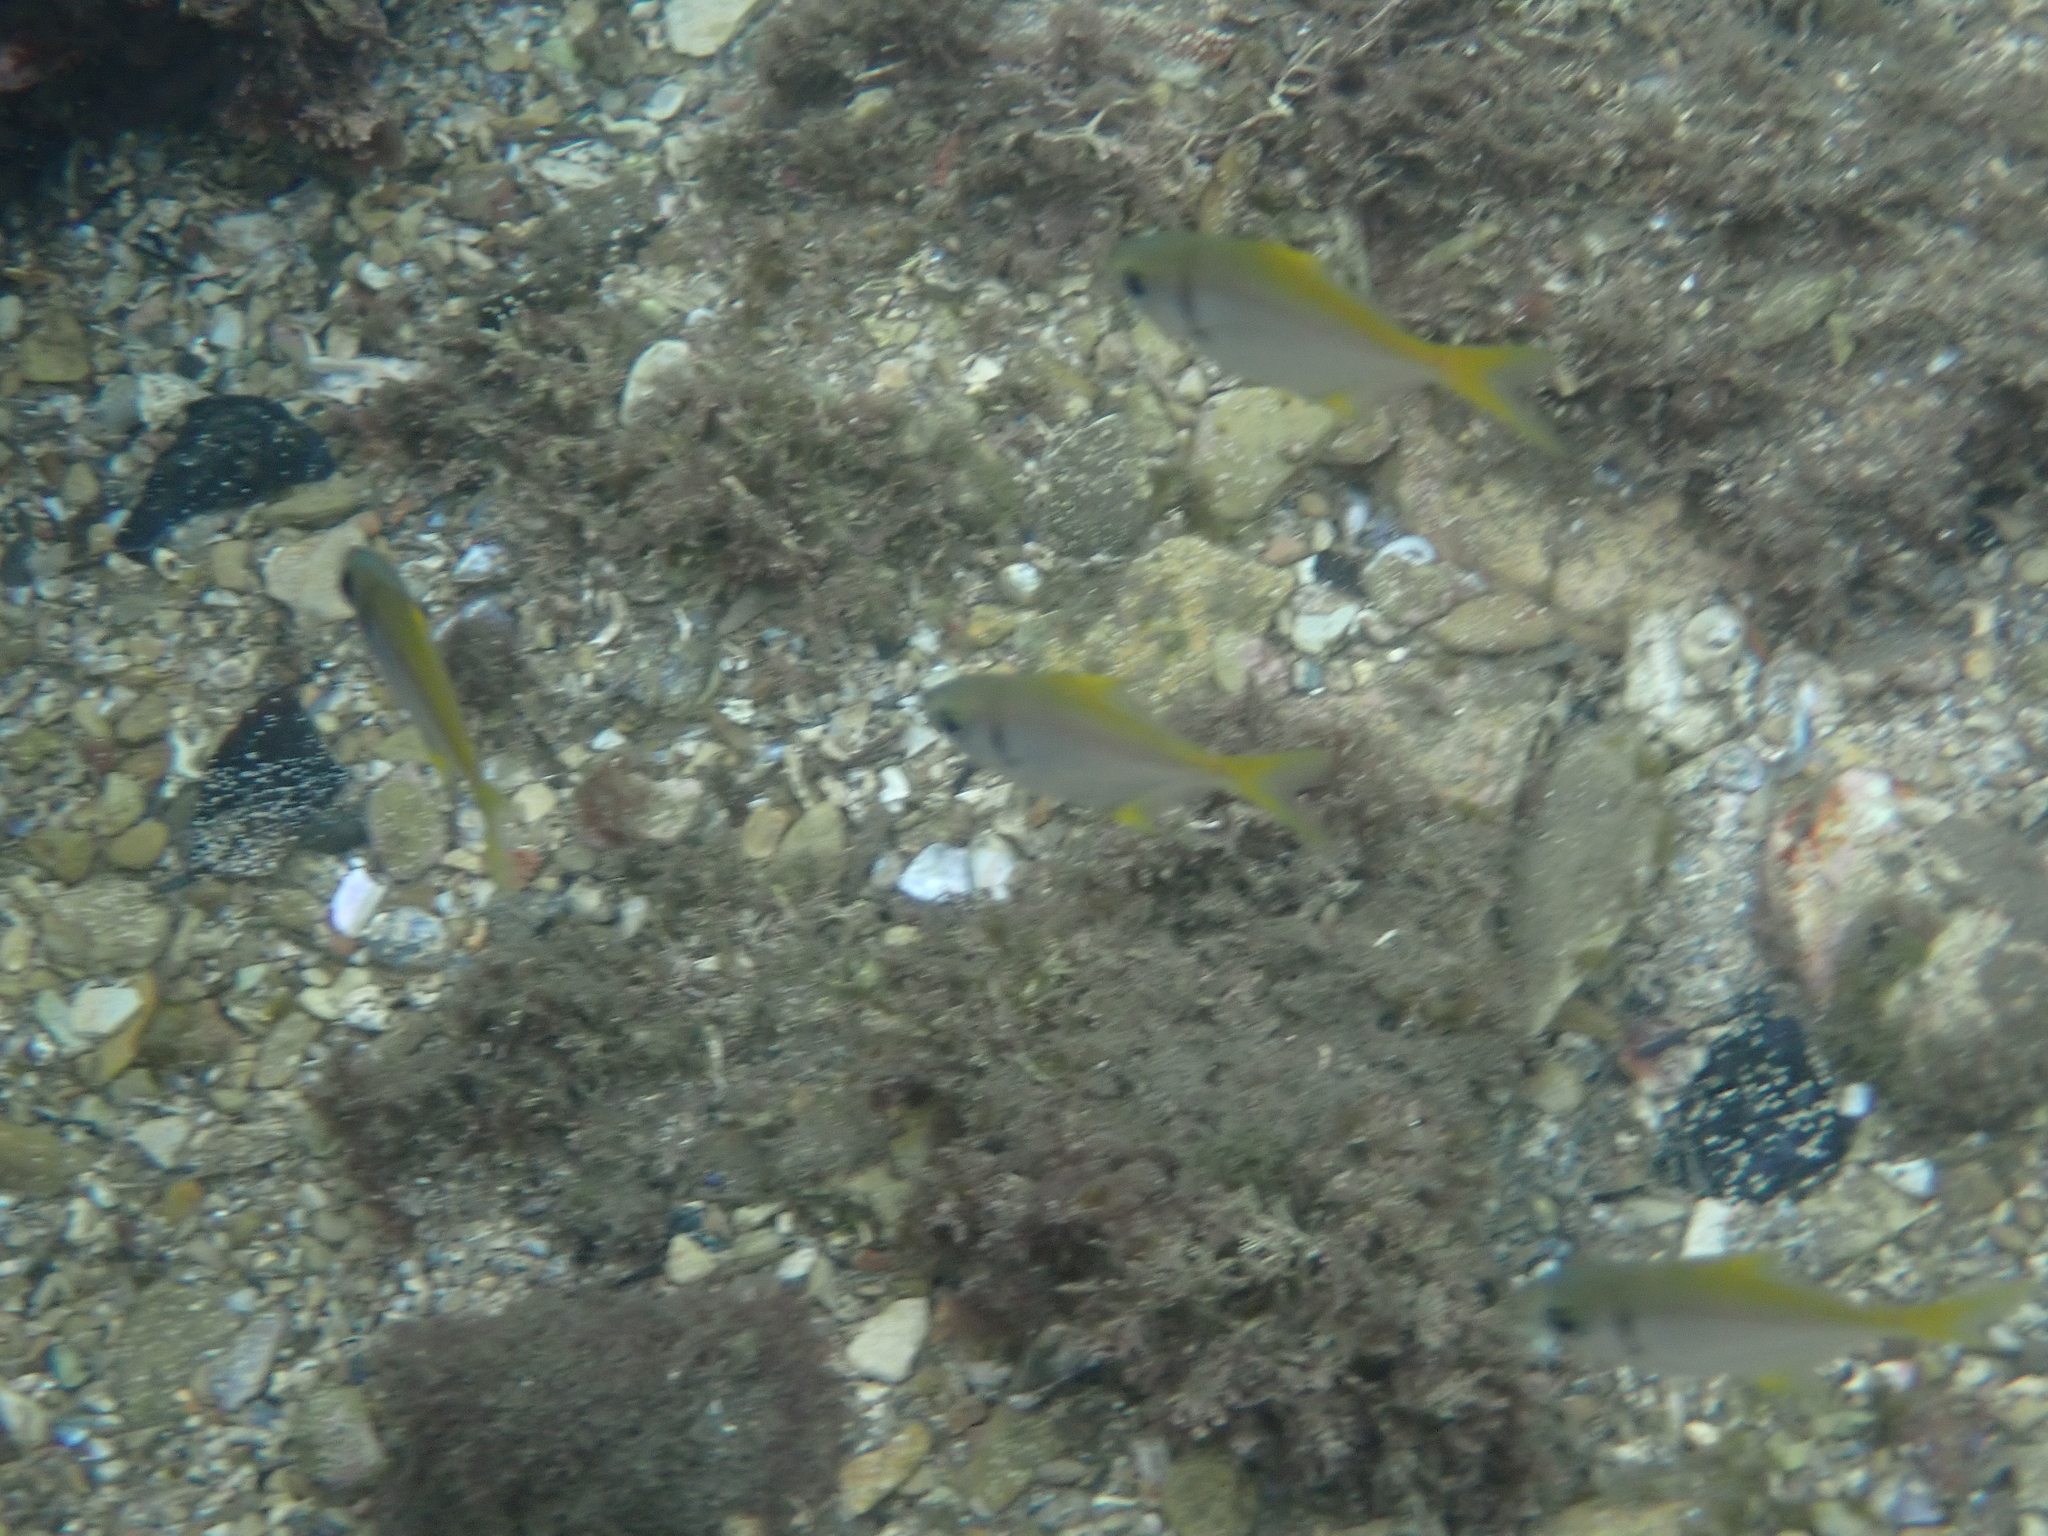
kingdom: Animalia
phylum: Chordata
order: Perciformes
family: Monodactylidae
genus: Schuettea
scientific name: Schuettea scalaripinnis
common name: Eastern pomfred
